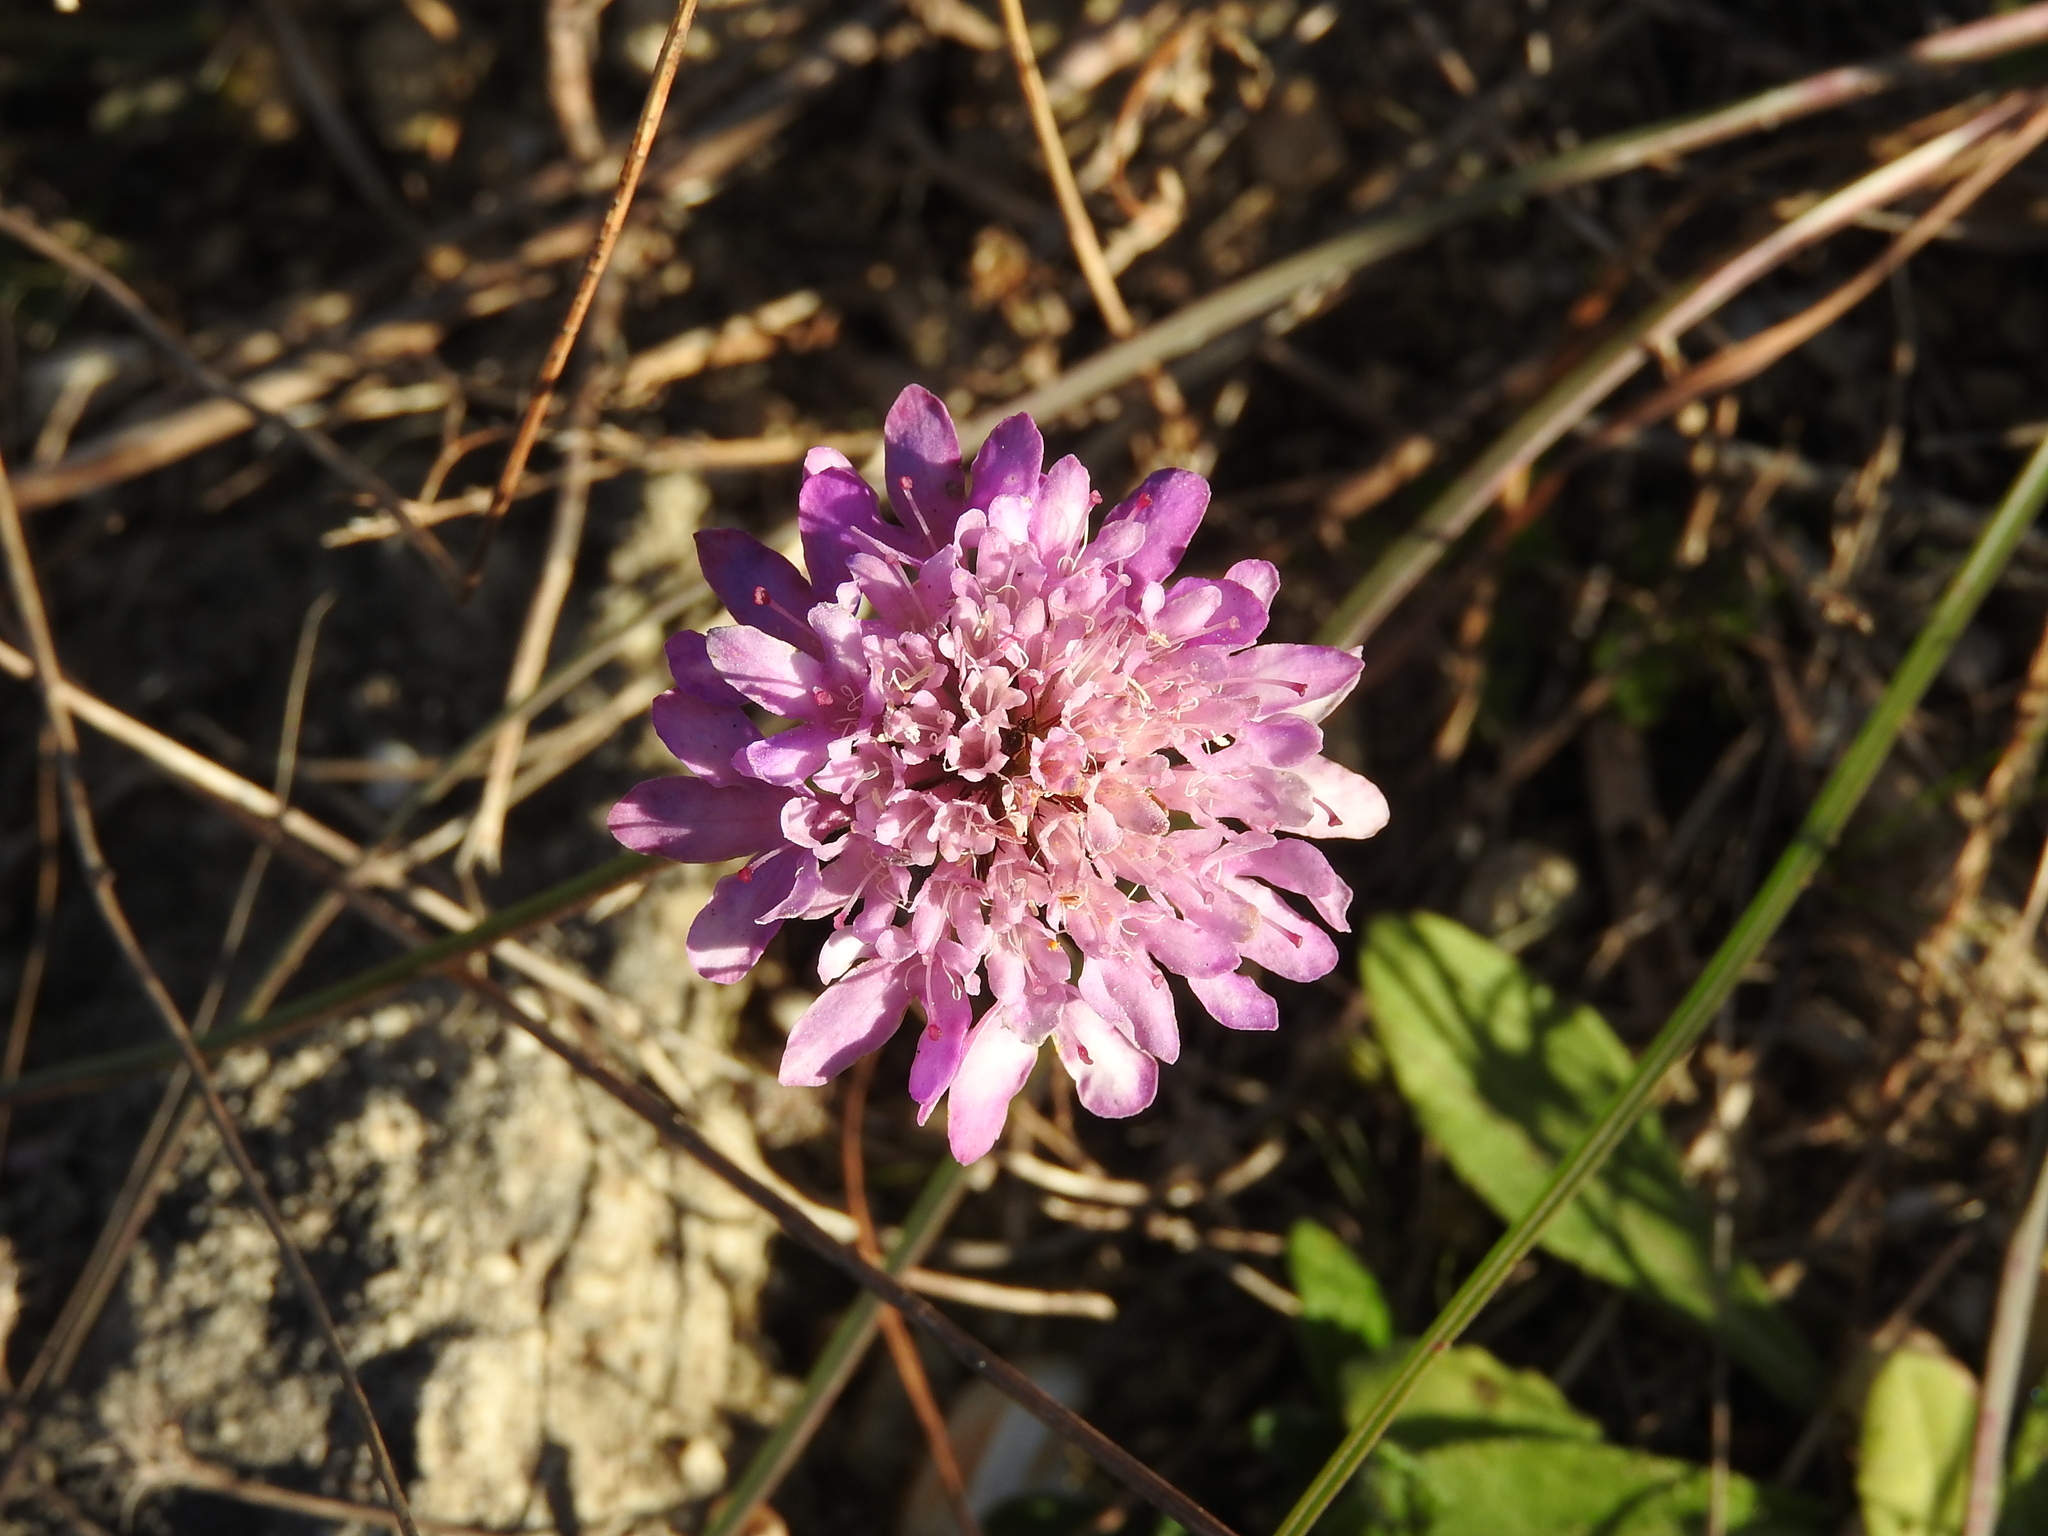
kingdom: Plantae
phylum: Tracheophyta
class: Magnoliopsida
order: Dipsacales
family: Caprifoliaceae
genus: Sixalix
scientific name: Sixalix atropurpurea
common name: Sweet scabious
